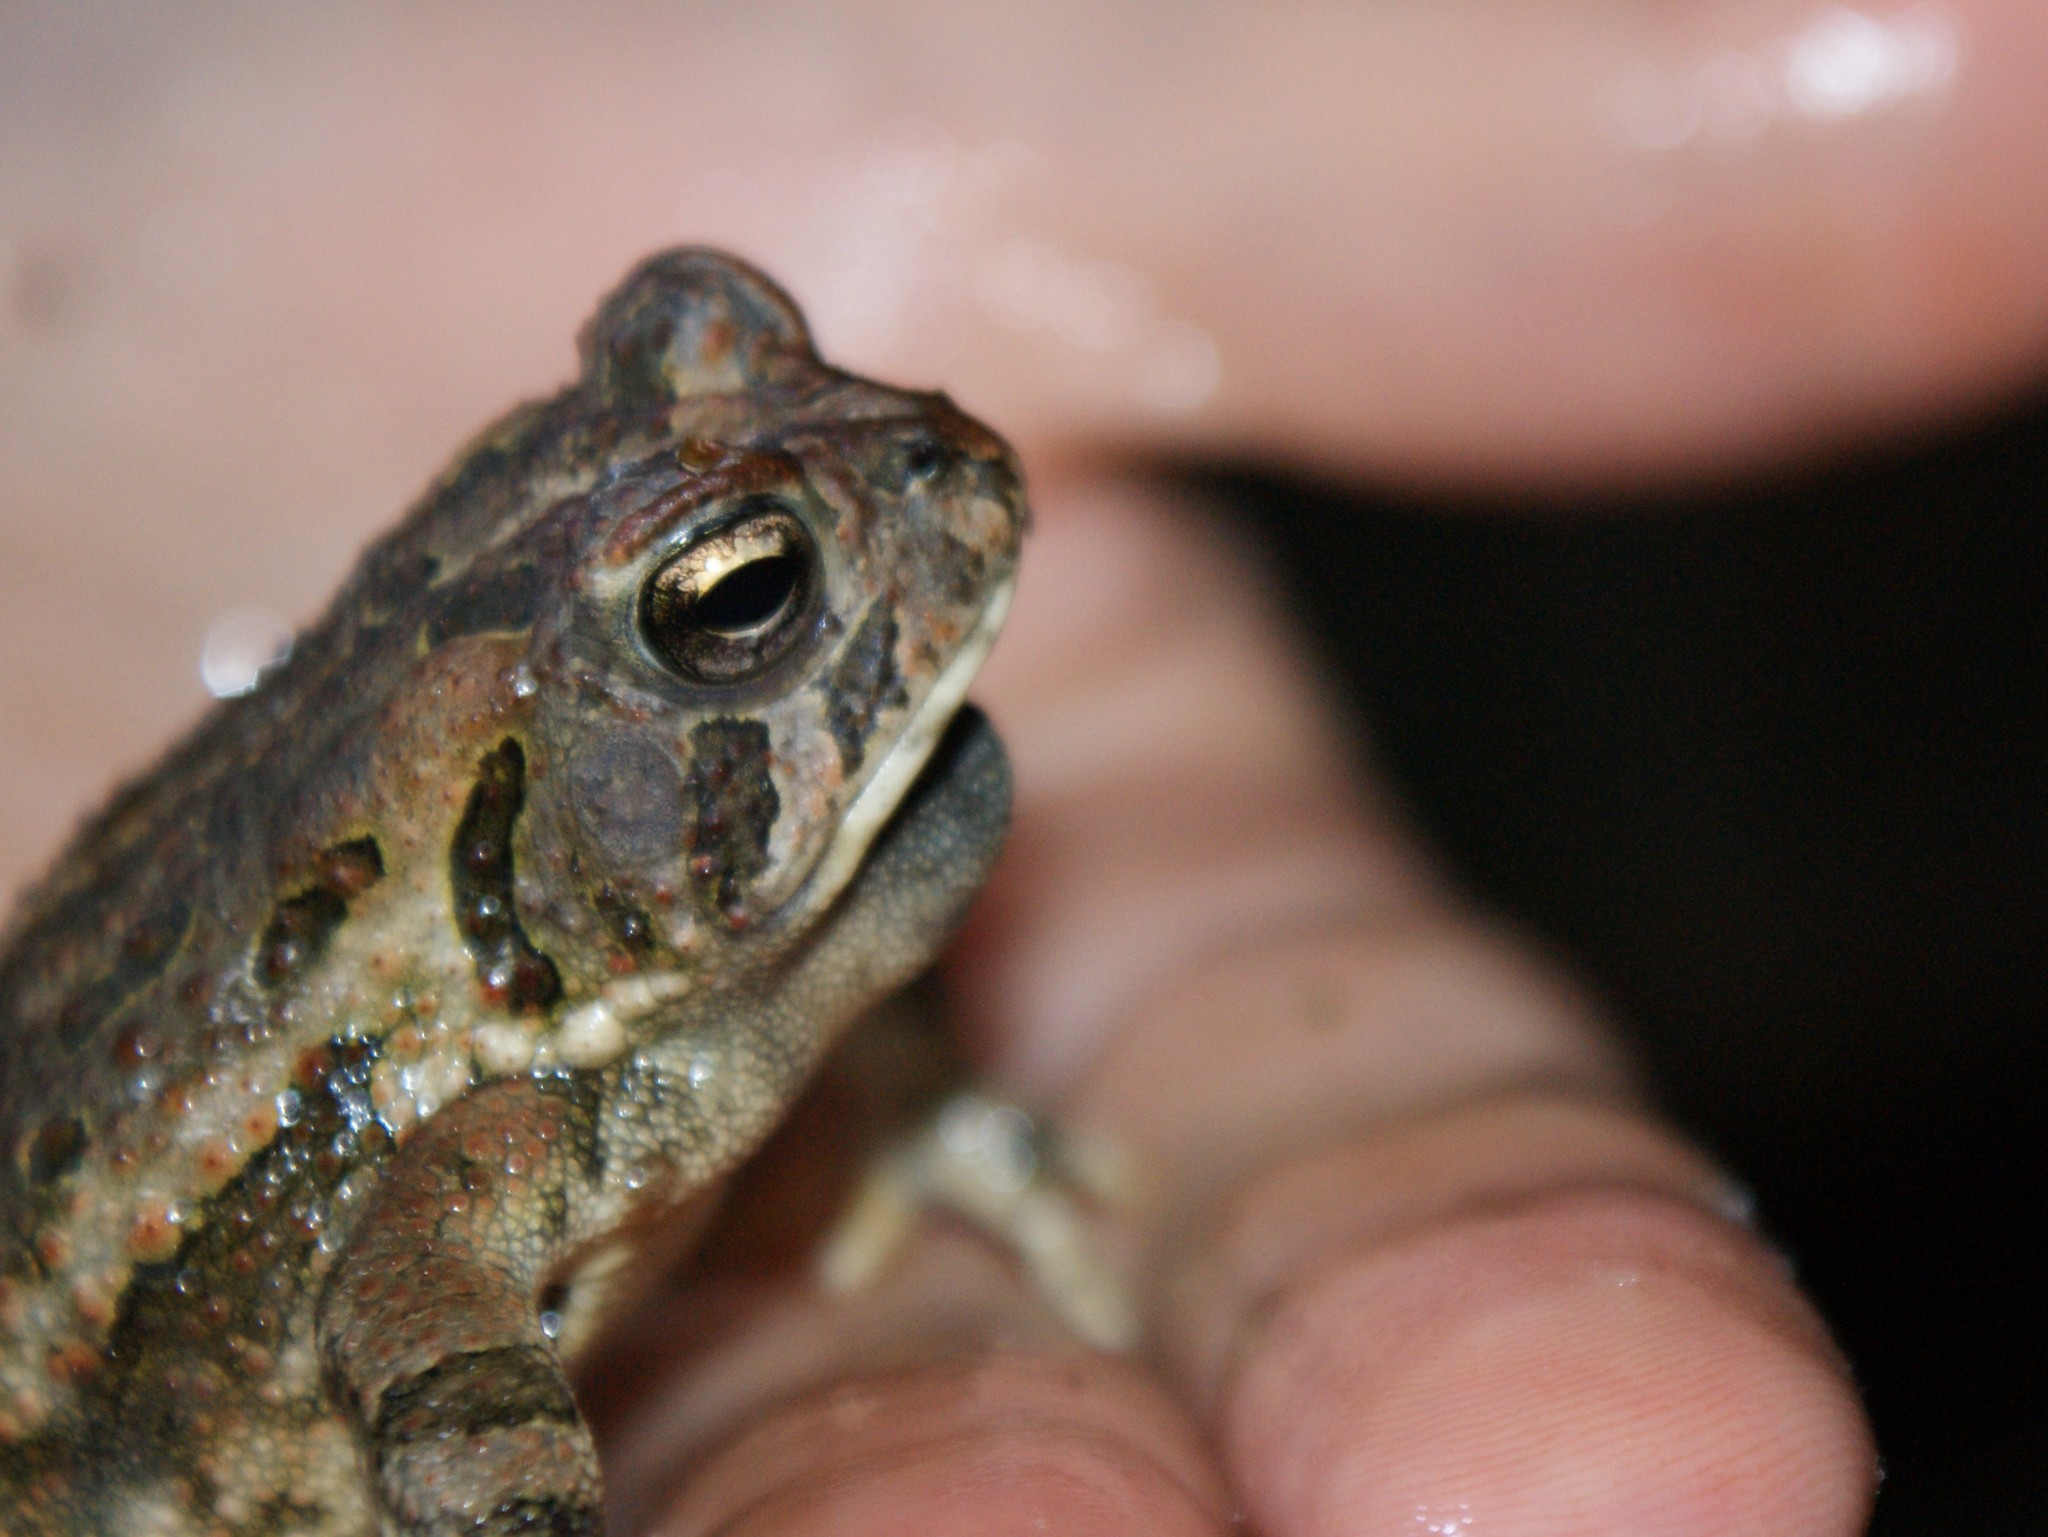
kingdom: Animalia
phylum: Chordata
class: Amphibia
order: Anura
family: Bufonidae
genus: Anaxyrus
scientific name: Anaxyrus fowleri
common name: Fowler's toad
